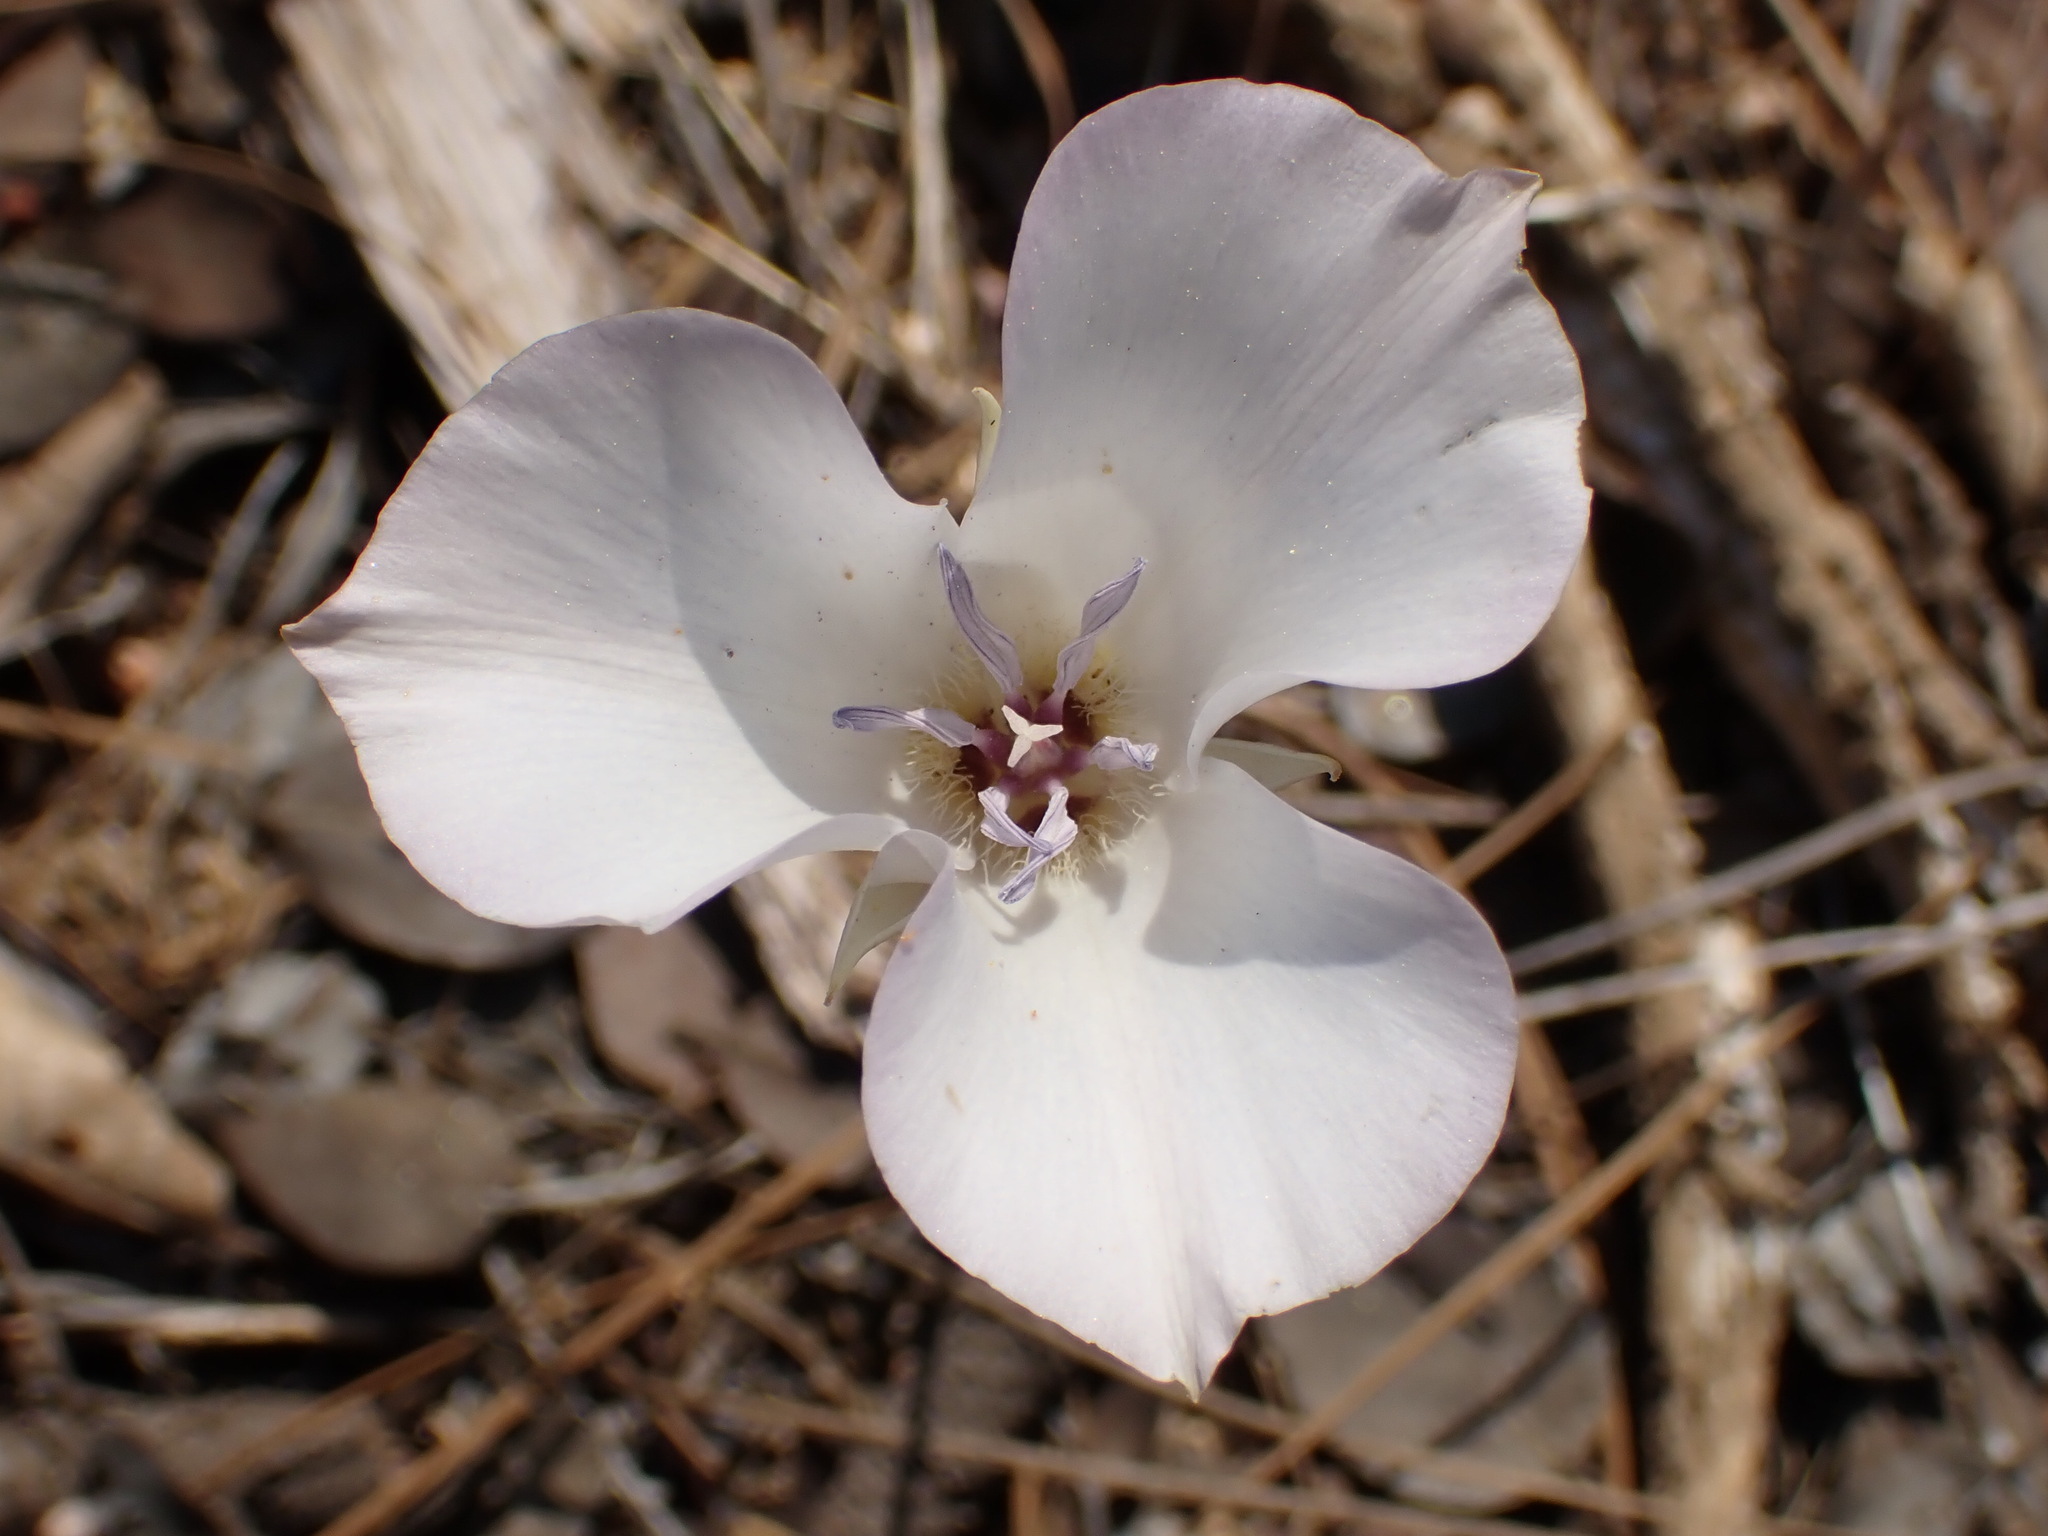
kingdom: Plantae
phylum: Tracheophyta
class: Liliopsida
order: Liliales
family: Liliaceae
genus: Calochortus
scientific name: Calochortus invenustus
